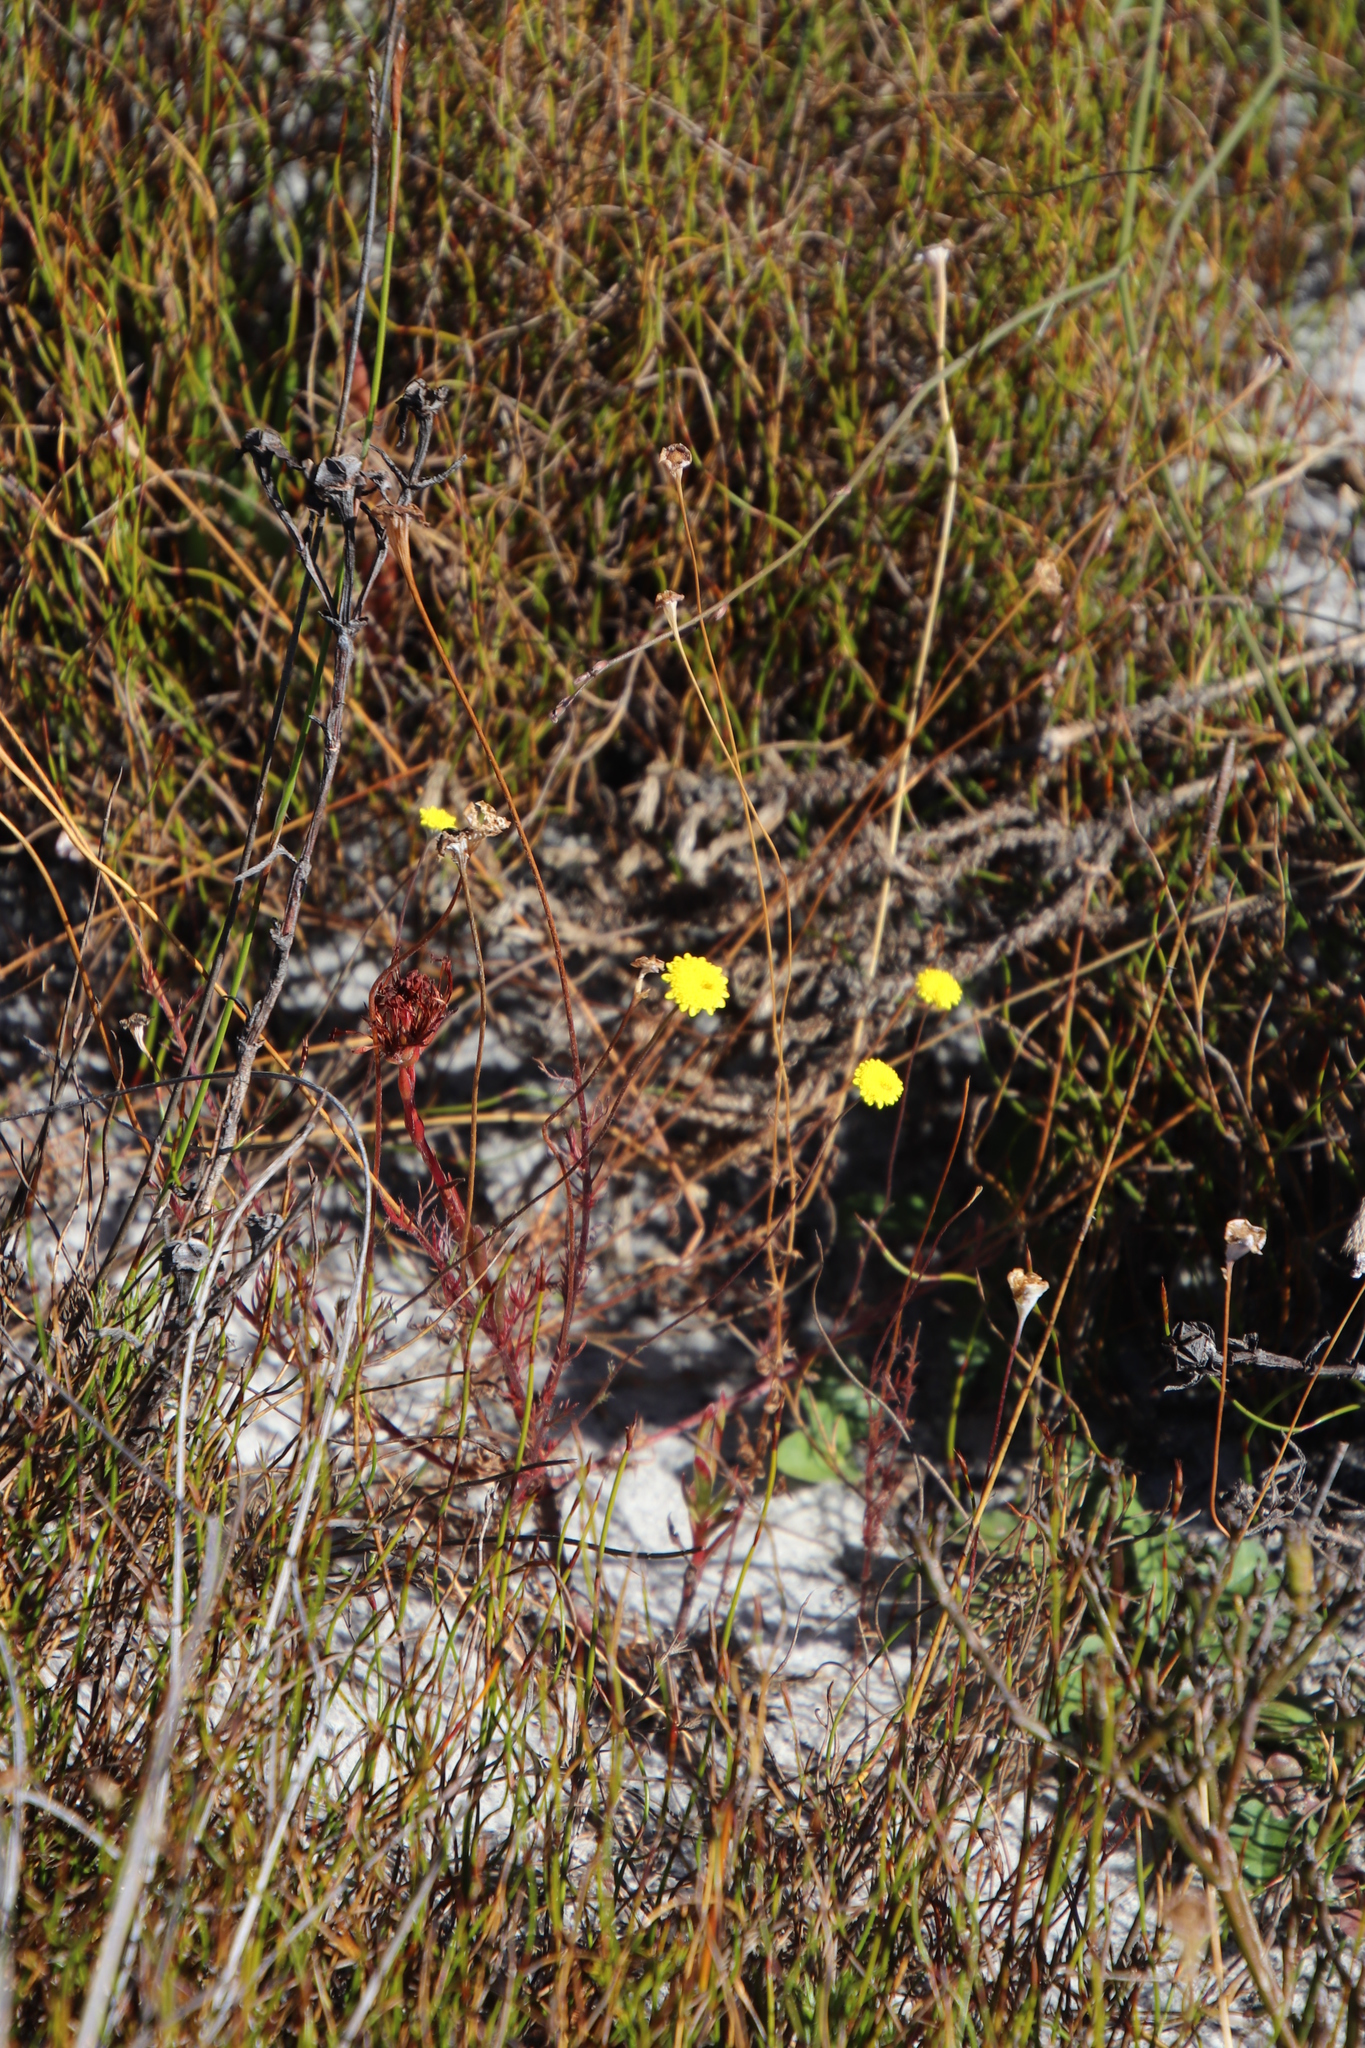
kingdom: Plantae
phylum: Tracheophyta
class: Magnoliopsida
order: Asterales
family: Asteraceae
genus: Cotula
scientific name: Cotula pruinosa
